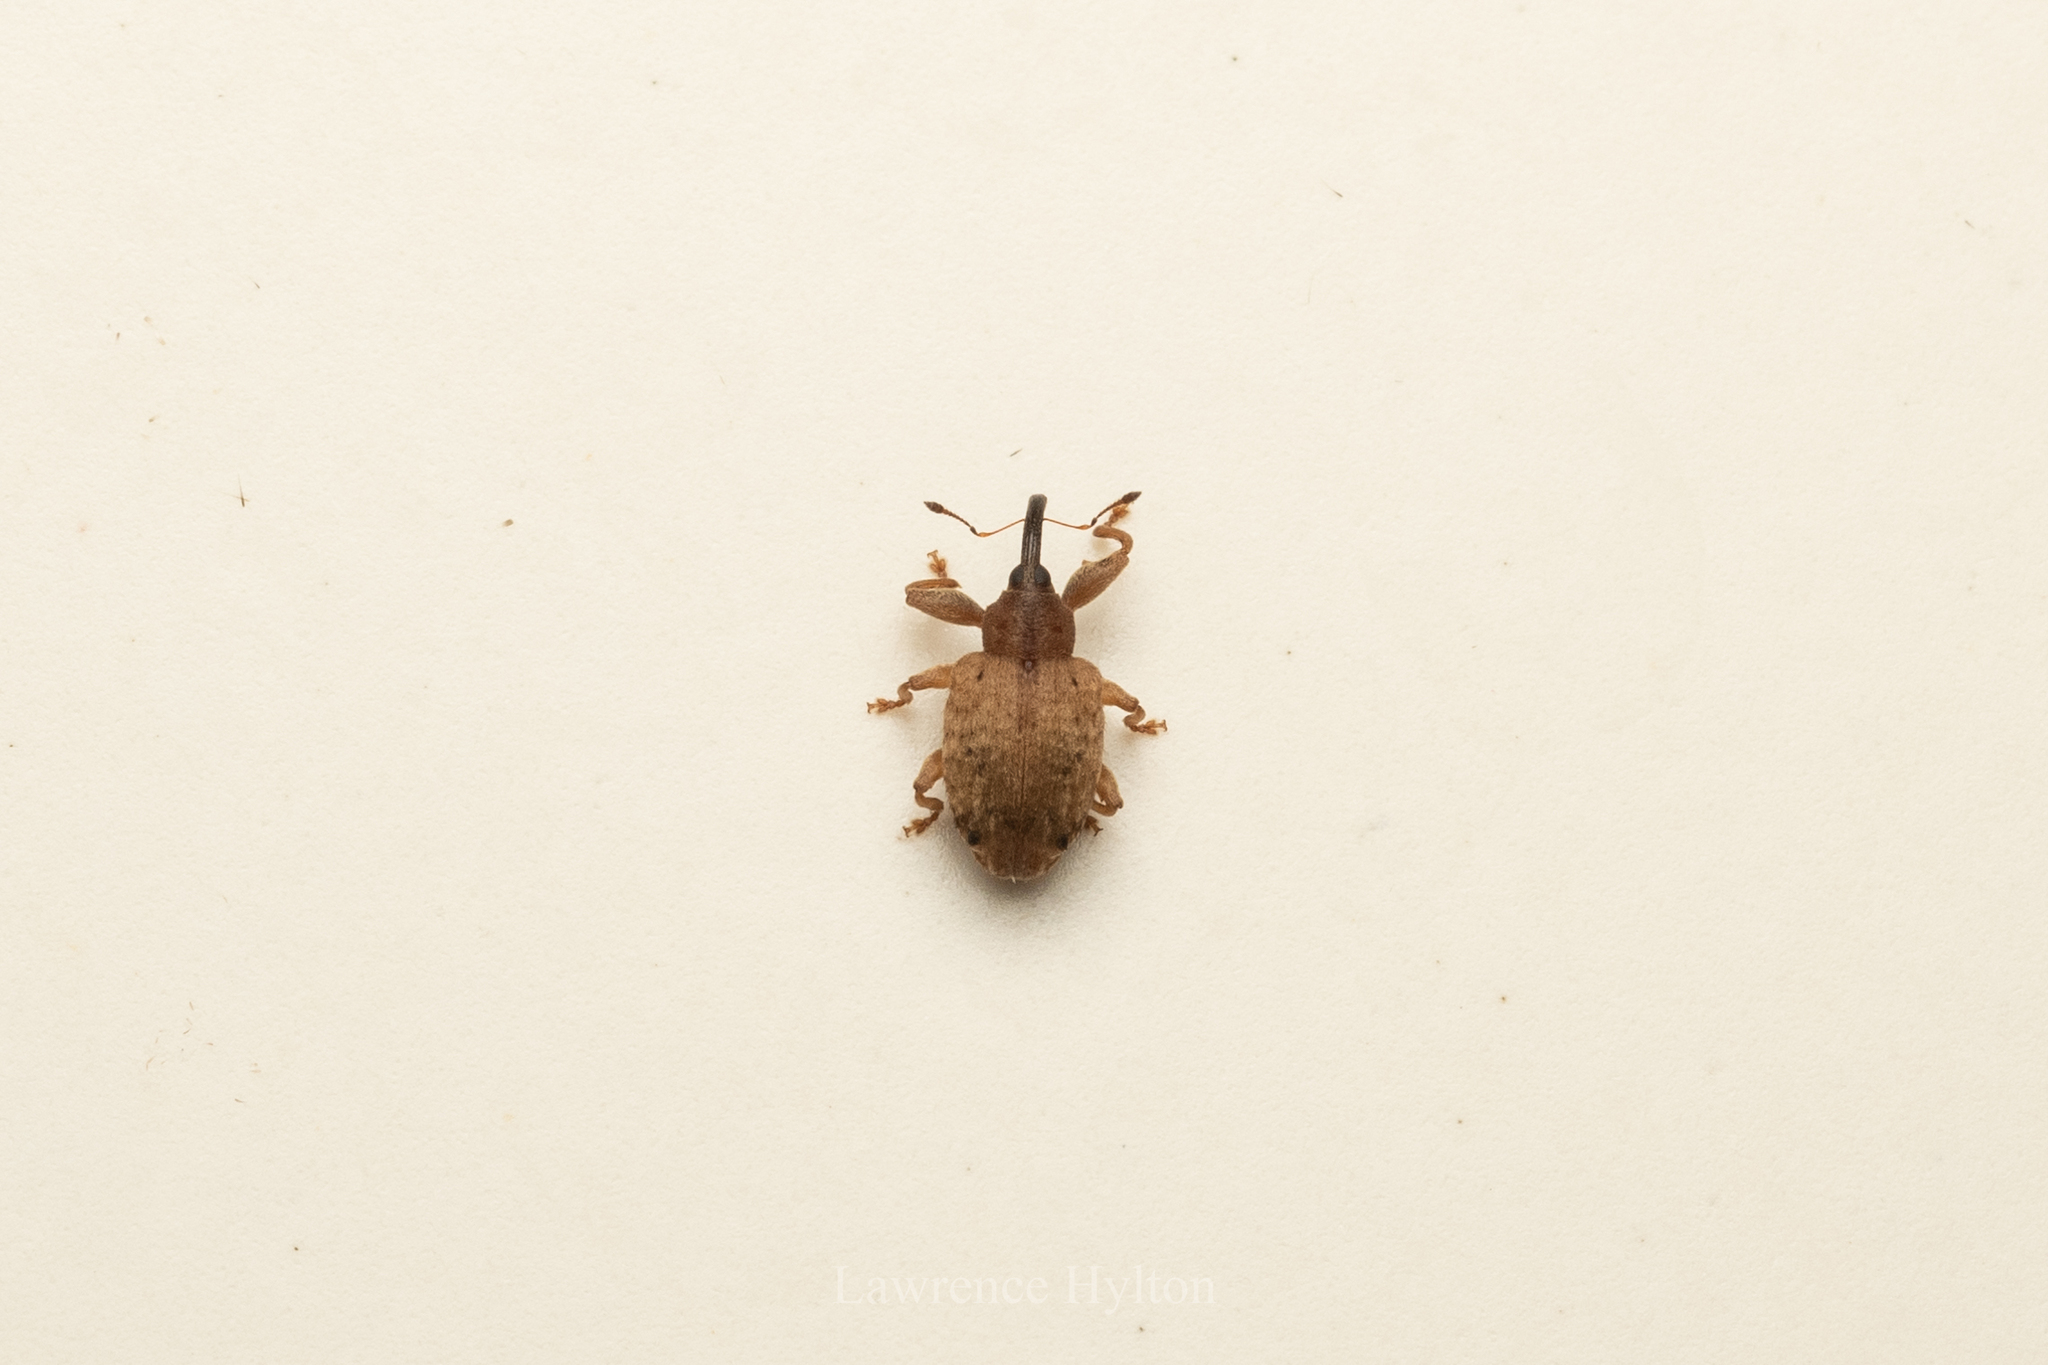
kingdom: Animalia
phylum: Arthropoda
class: Insecta
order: Coleoptera
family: Curculionidae
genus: Ochyromera
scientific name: Ochyromera ligustri
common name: Weevil
